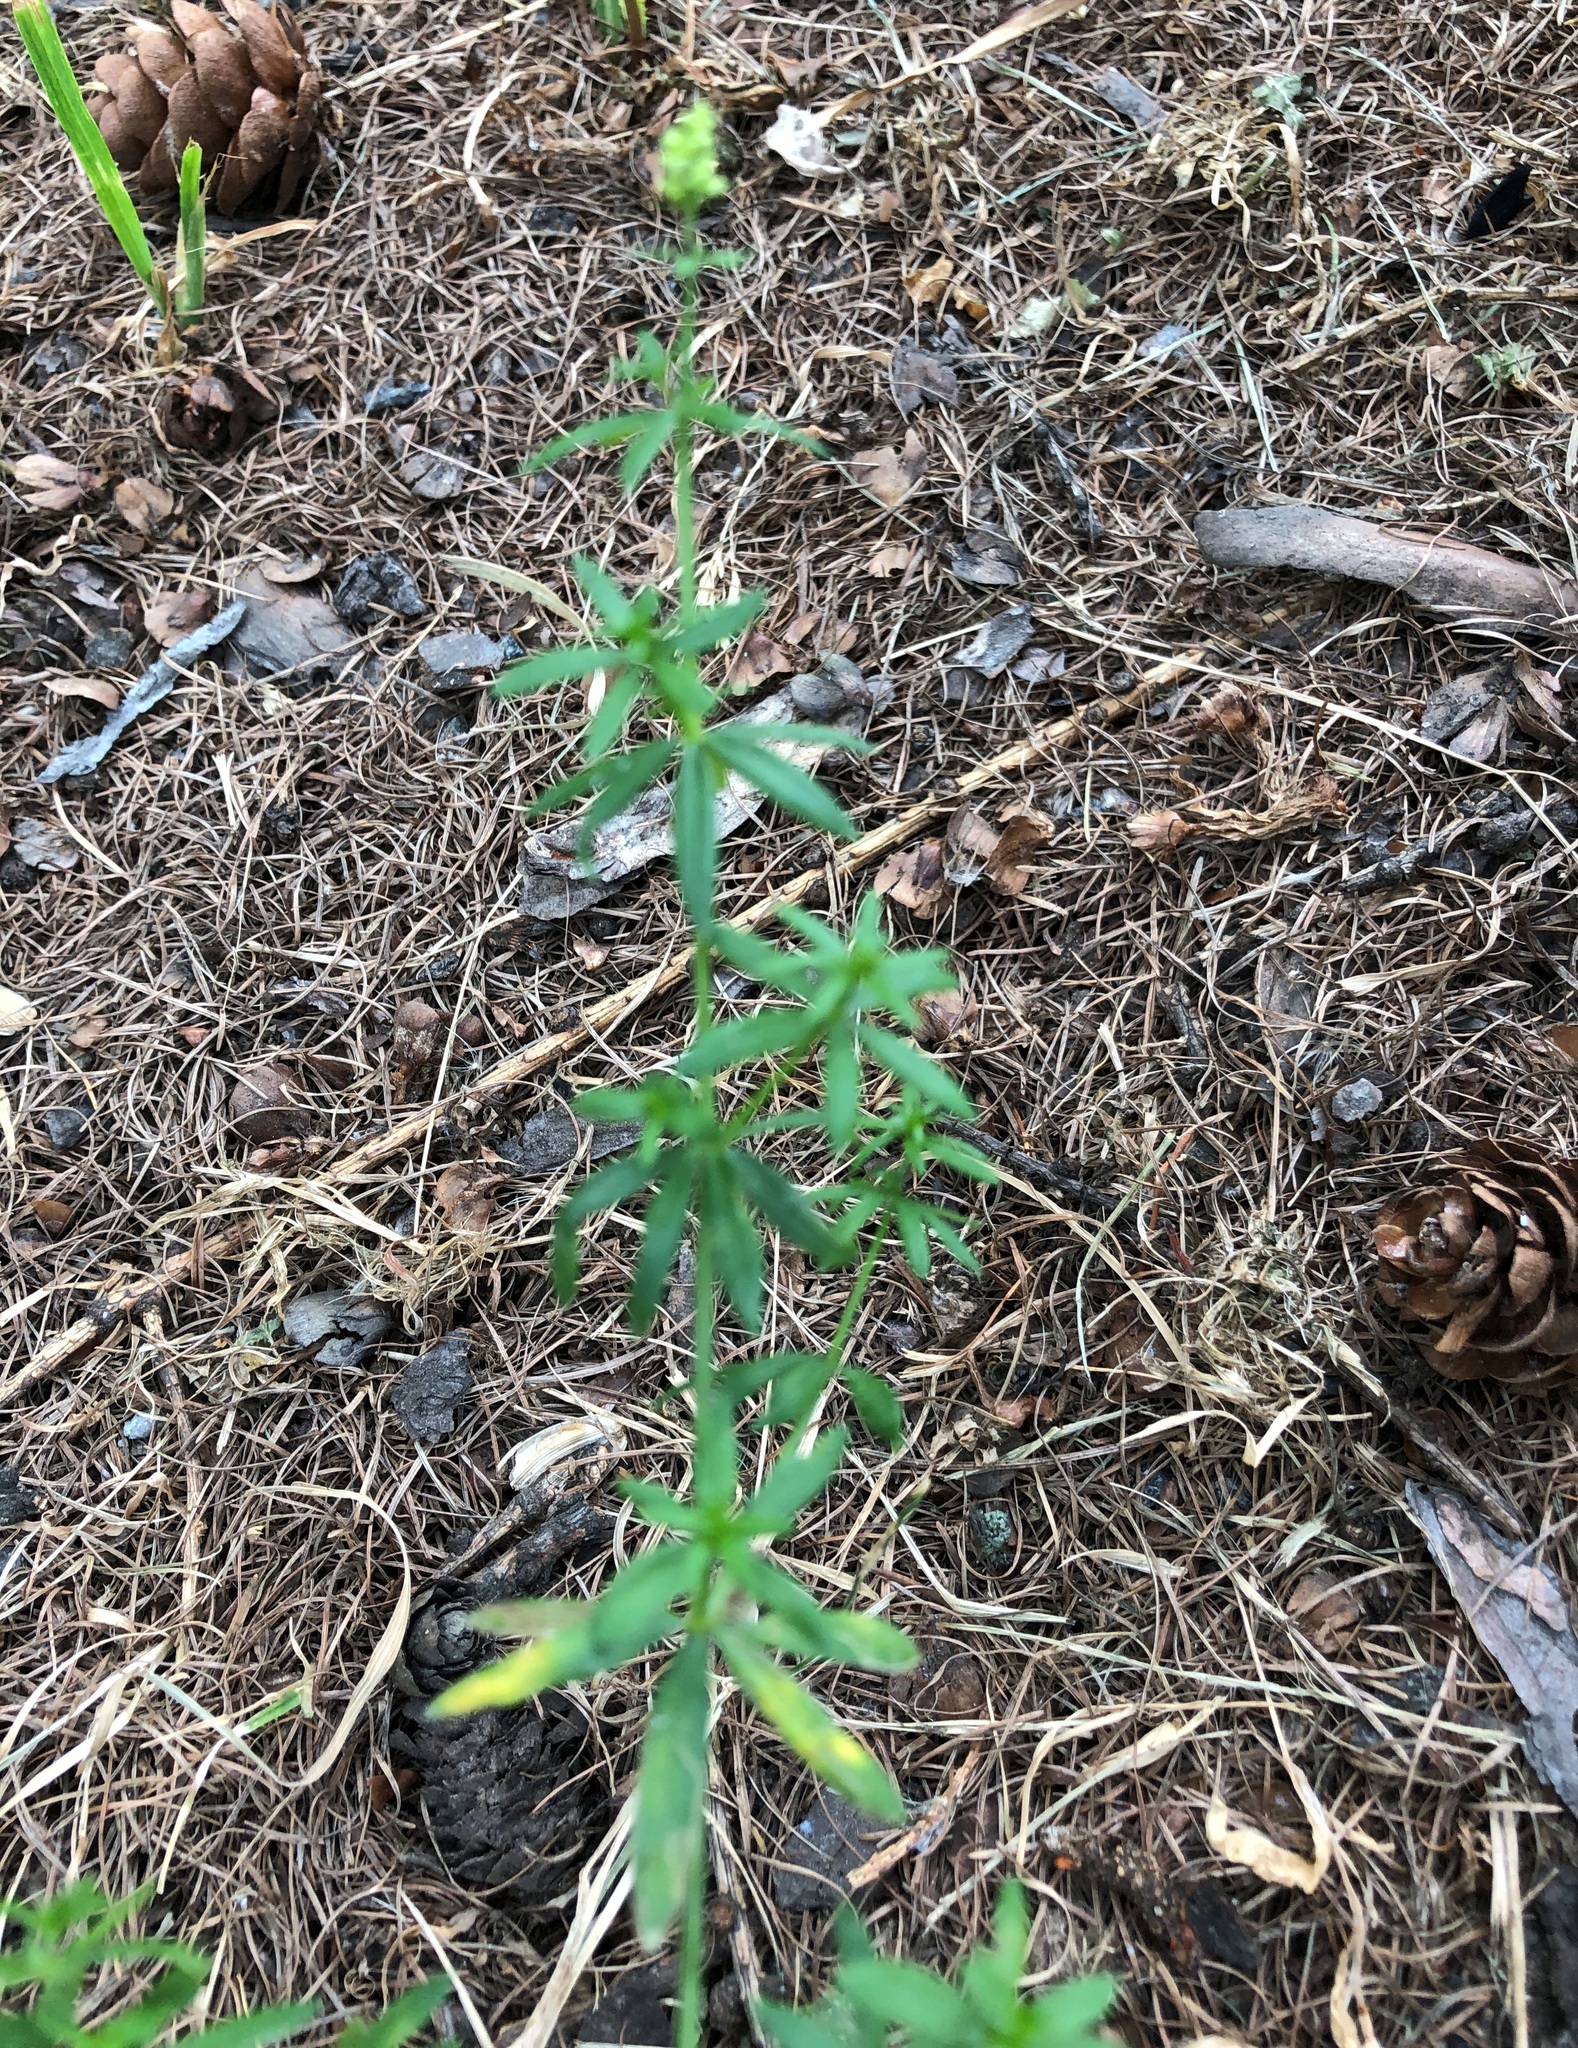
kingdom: Plantae
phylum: Tracheophyta
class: Magnoliopsida
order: Gentianales
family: Rubiaceae
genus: Galium
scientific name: Galium mollugo
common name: Hedge bedstraw
